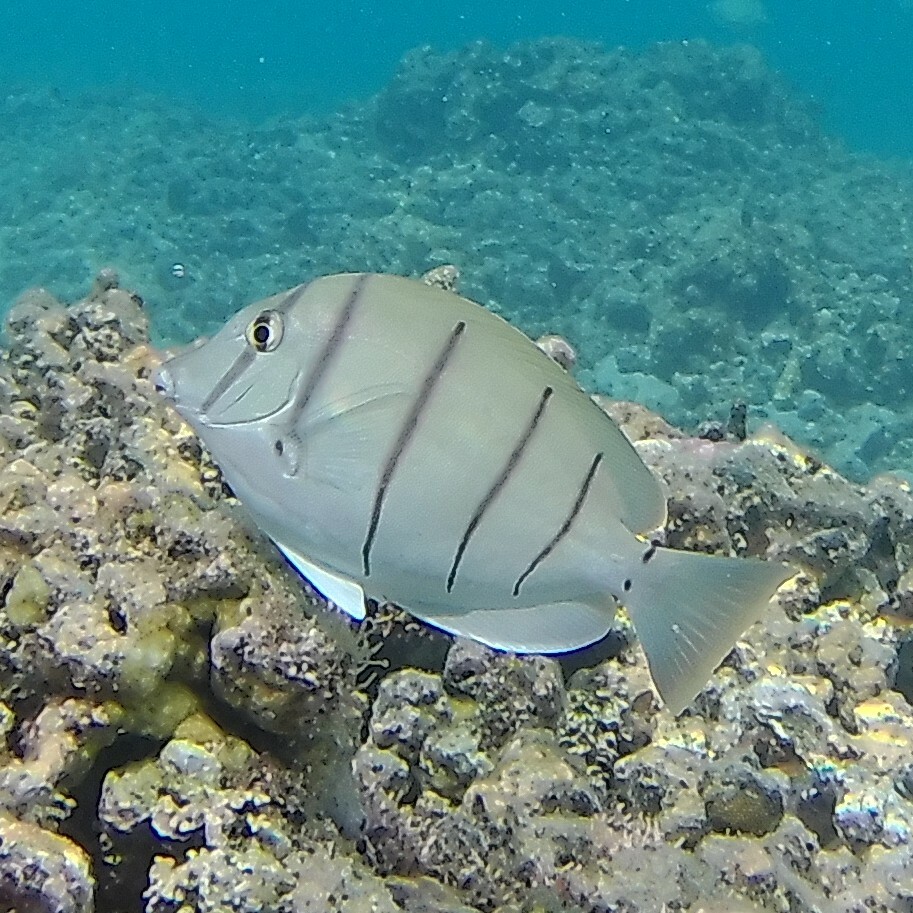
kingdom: Animalia
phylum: Chordata
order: Perciformes
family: Acanthuridae
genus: Acanthurus
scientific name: Acanthurus triostegus
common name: Convict surgeonfish
